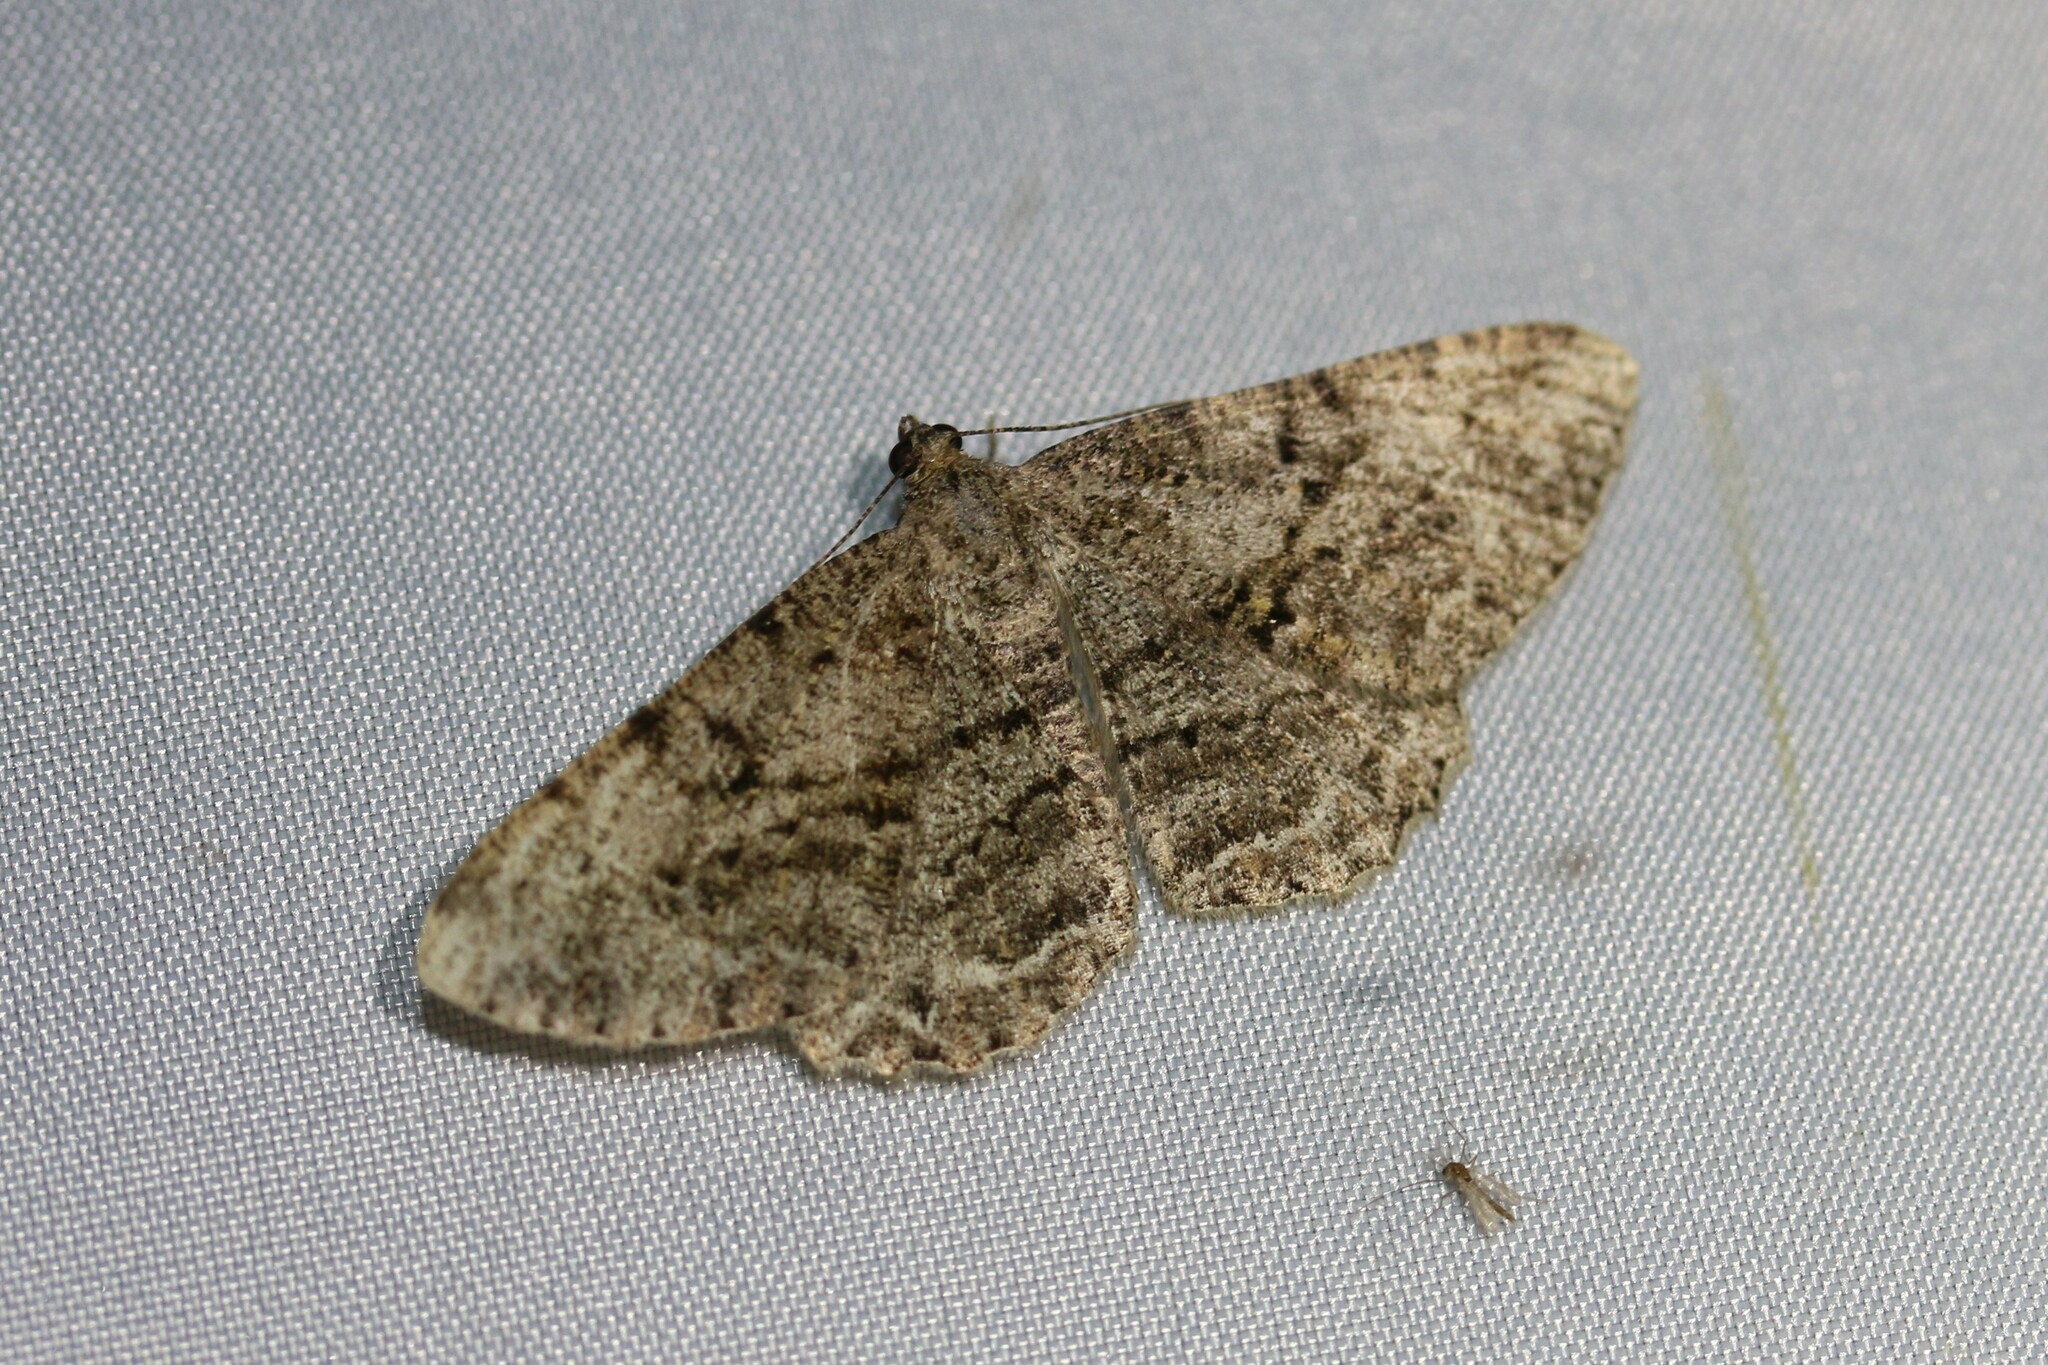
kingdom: Animalia
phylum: Arthropoda
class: Insecta
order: Lepidoptera
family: Geometridae
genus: Peribatodes
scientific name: Peribatodes rhomboidaria
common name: Willow beauty
